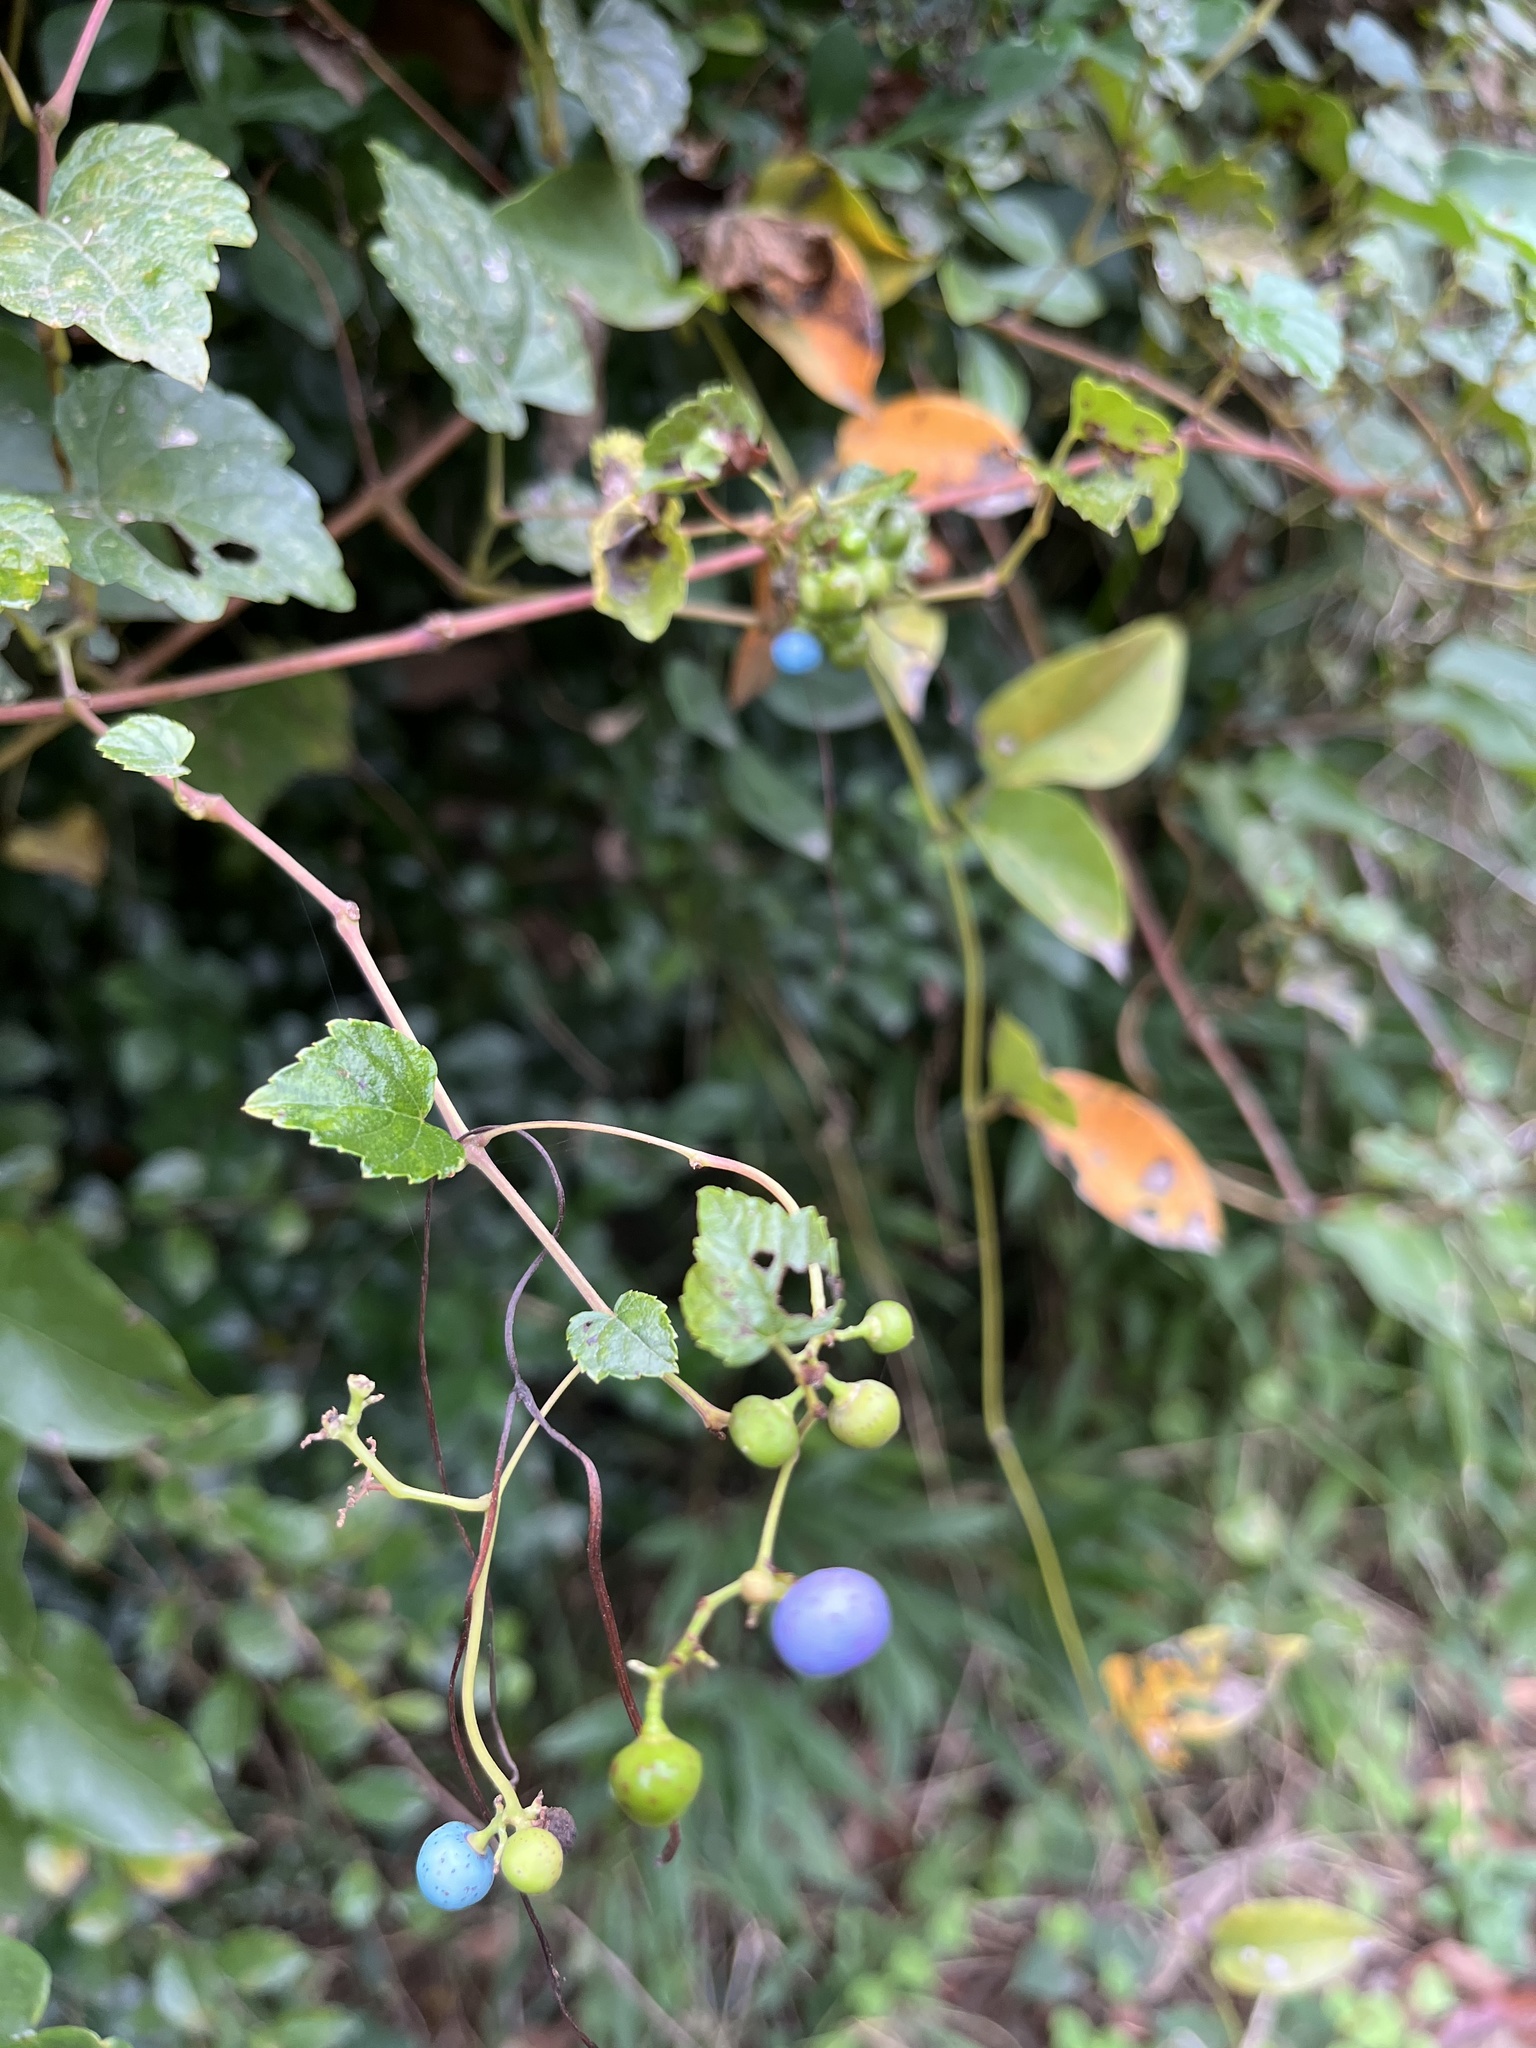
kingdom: Plantae
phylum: Tracheophyta
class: Magnoliopsida
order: Vitales
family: Vitaceae
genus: Ampelopsis
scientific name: Ampelopsis glandulosa
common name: Amur peppervine
